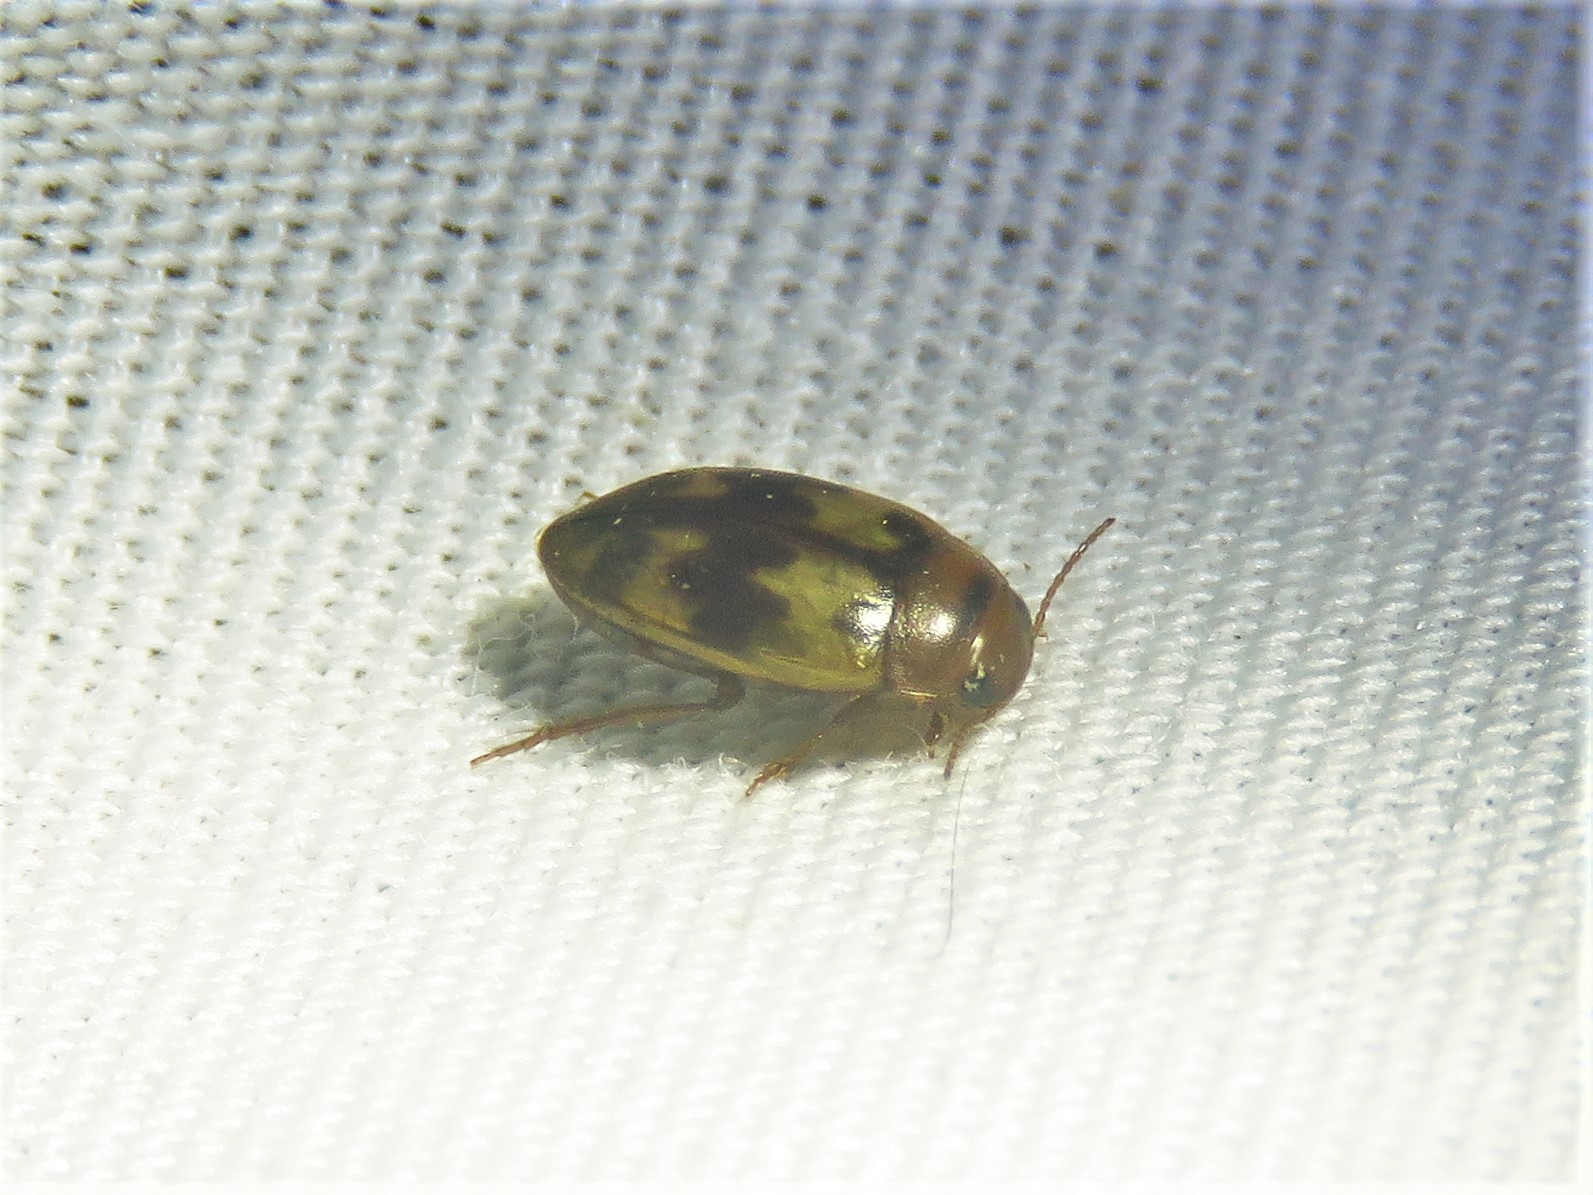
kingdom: Animalia
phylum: Arthropoda
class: Insecta
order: Coleoptera
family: Dytiscidae
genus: Heterosternuta
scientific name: Heterosternuta diversicornis
